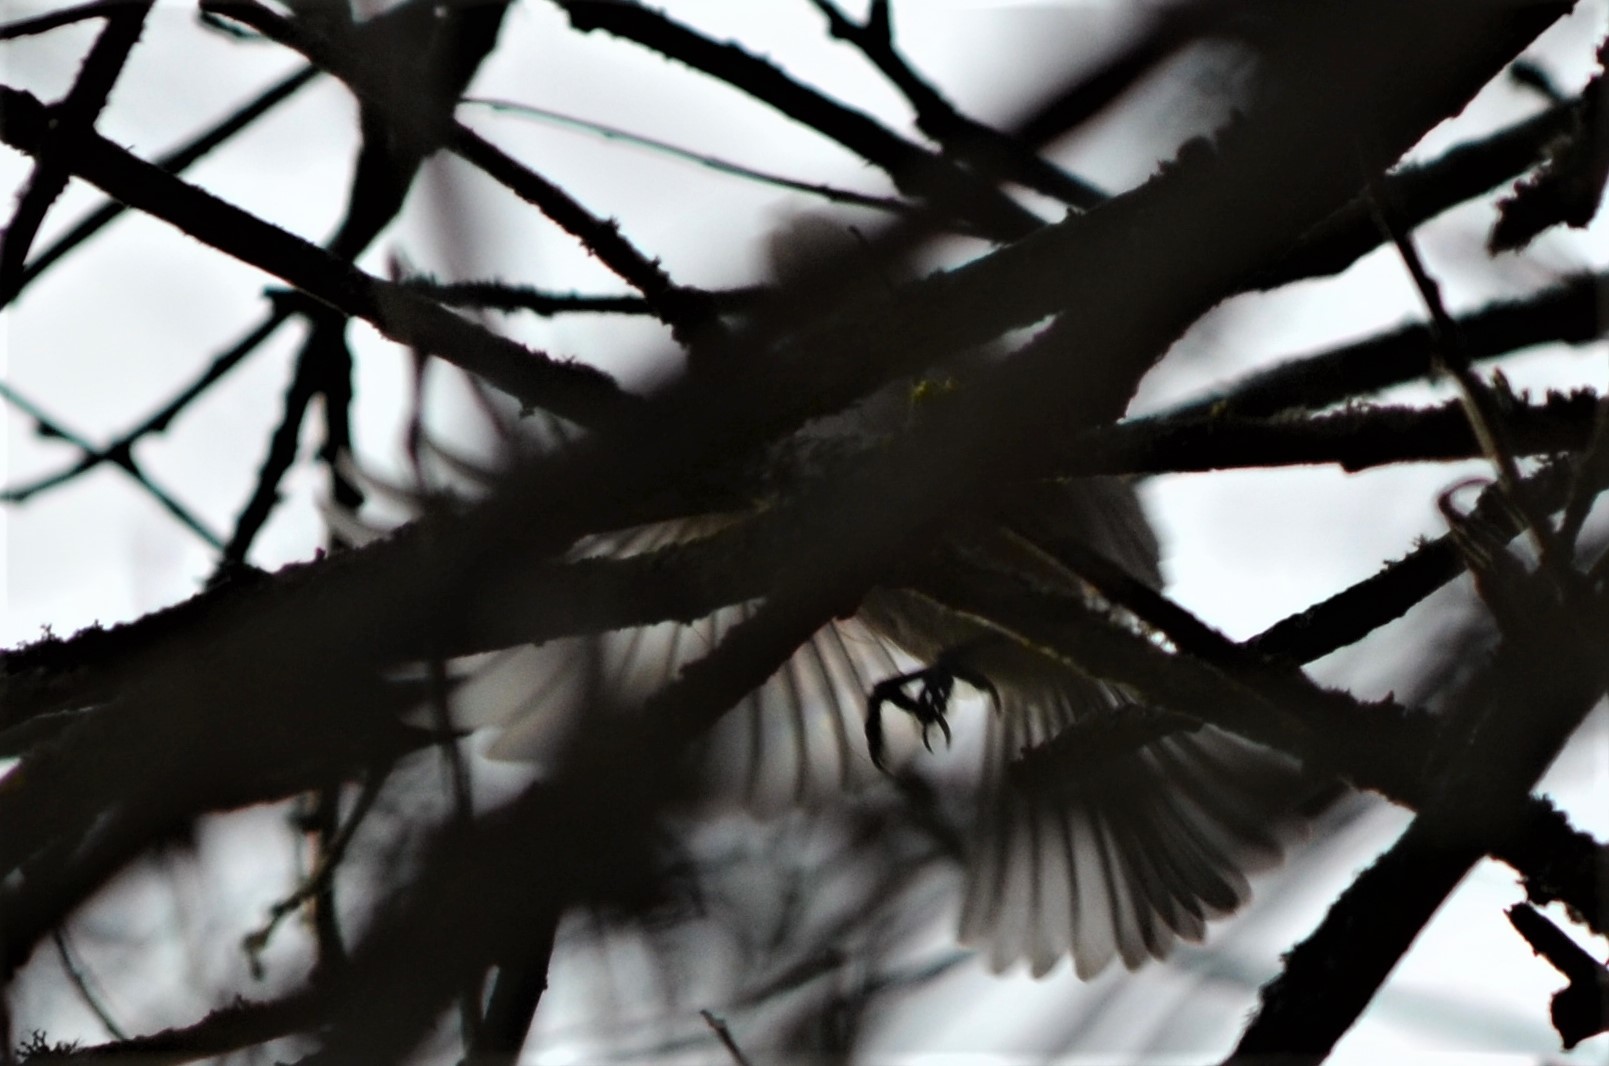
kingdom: Animalia
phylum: Chordata
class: Aves
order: Passeriformes
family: Paridae
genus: Poecile
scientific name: Poecile palustris
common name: Marsh tit
